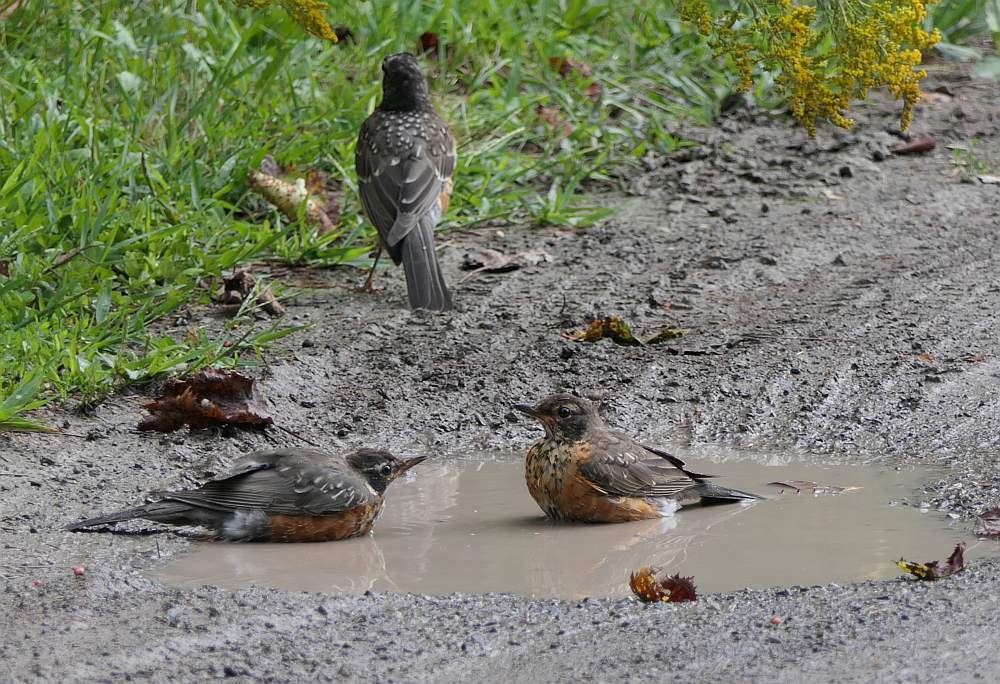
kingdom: Animalia
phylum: Chordata
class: Aves
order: Passeriformes
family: Turdidae
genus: Turdus
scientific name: Turdus migratorius
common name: American robin
